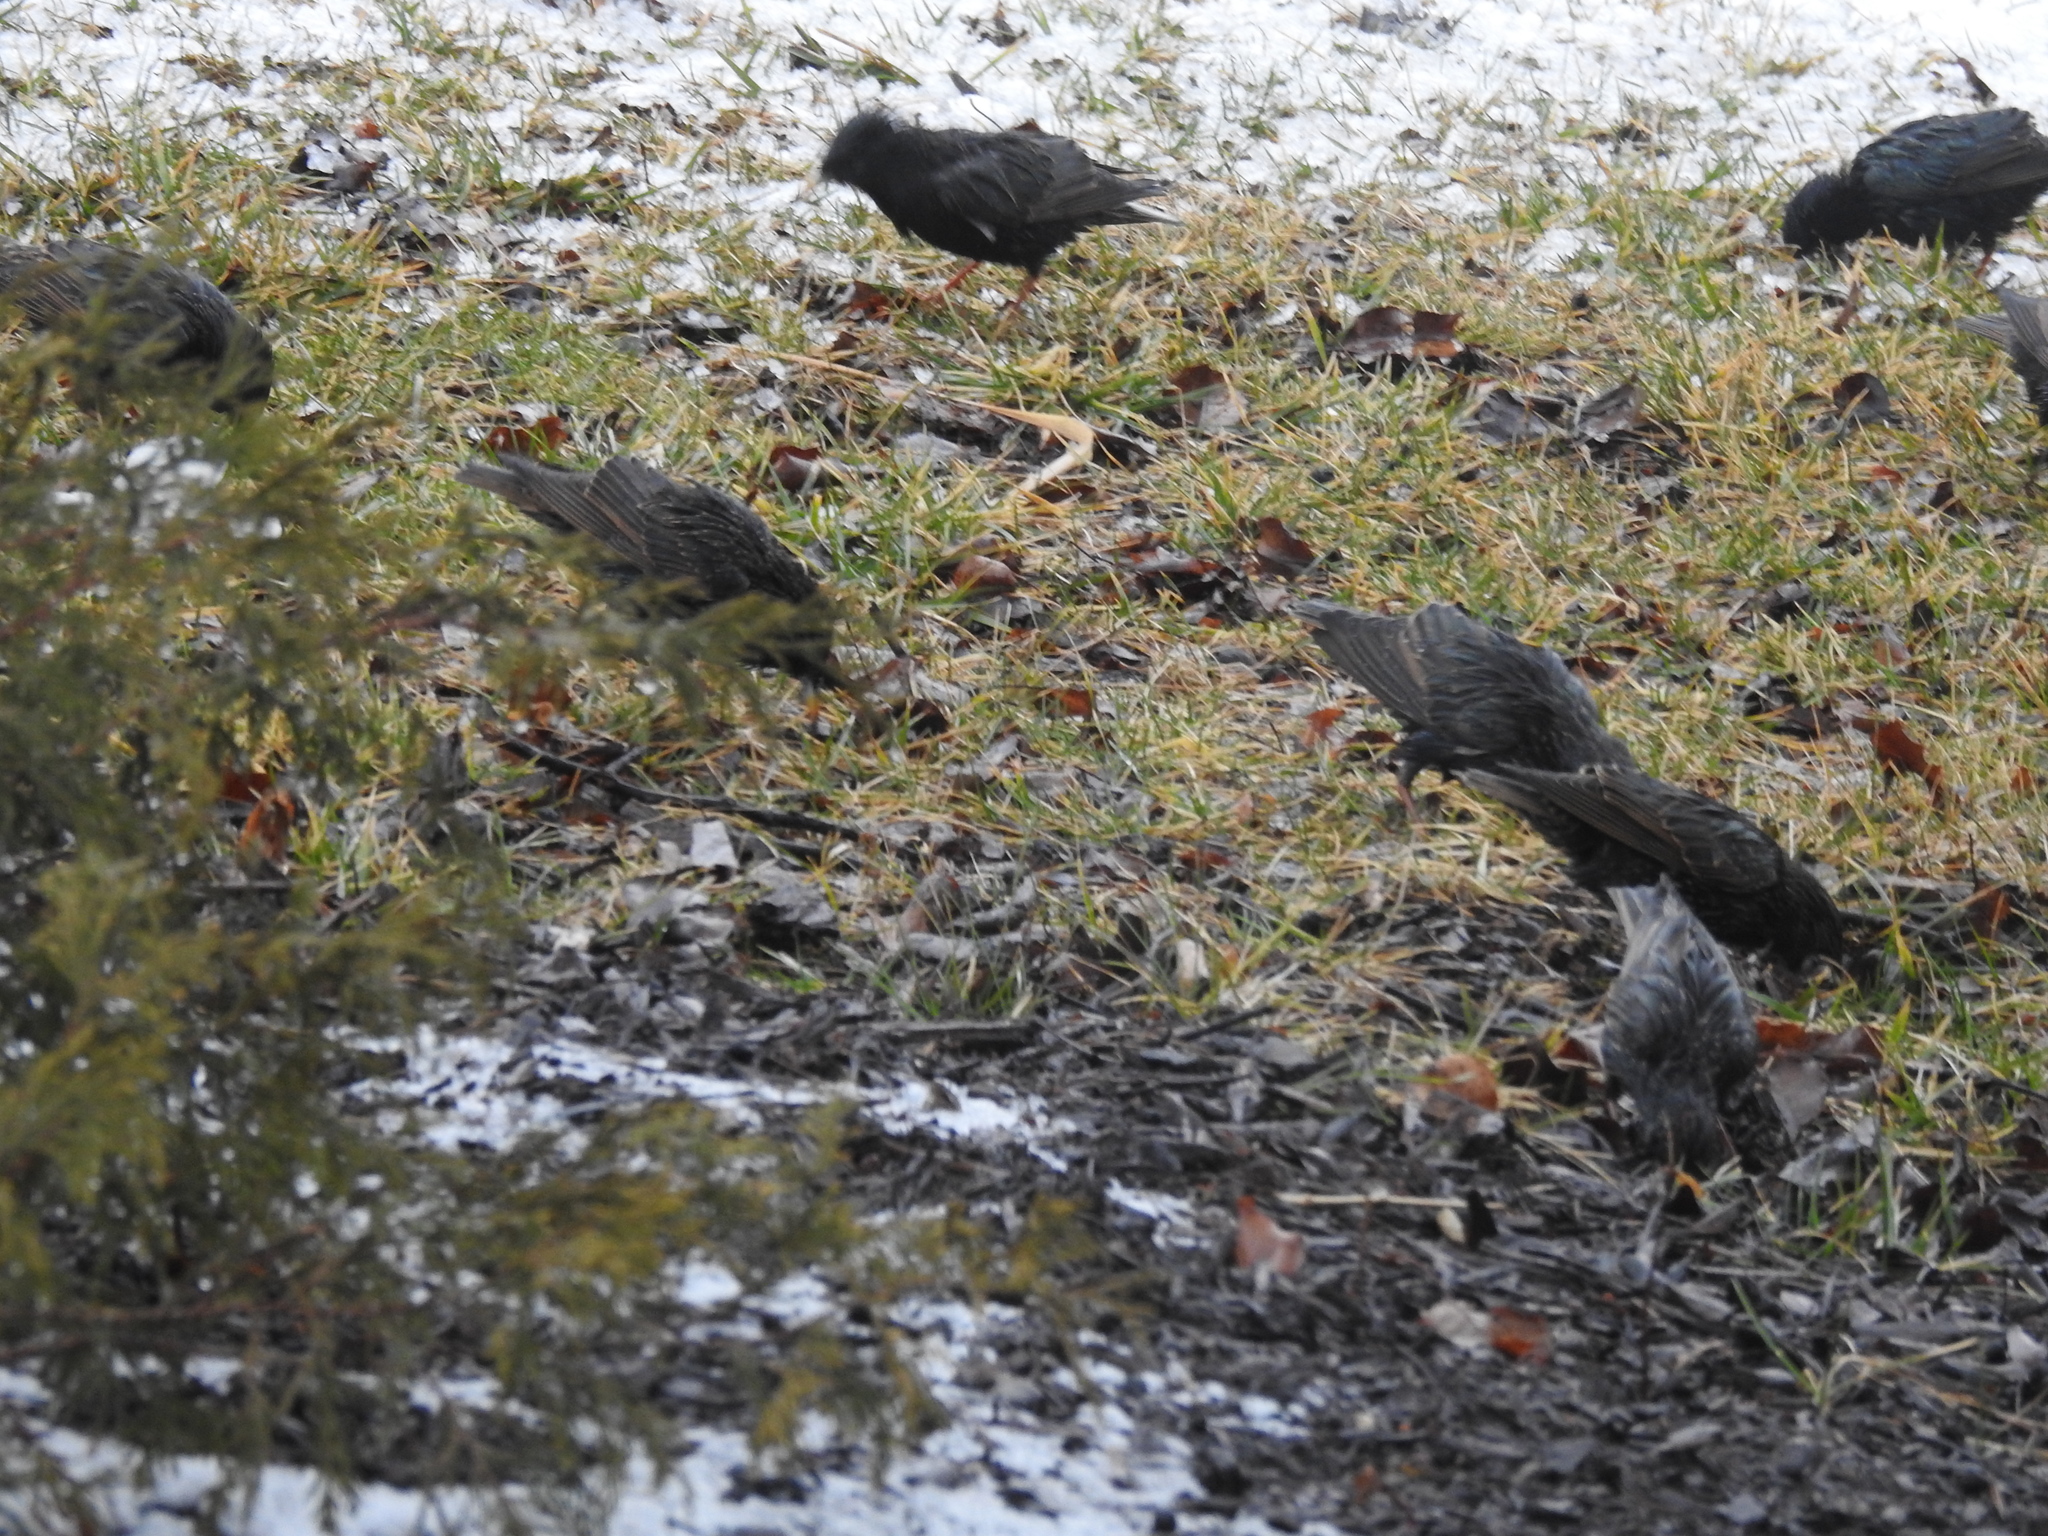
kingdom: Animalia
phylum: Chordata
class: Aves
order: Passeriformes
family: Sturnidae
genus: Sturnus
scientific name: Sturnus vulgaris
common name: Common starling
